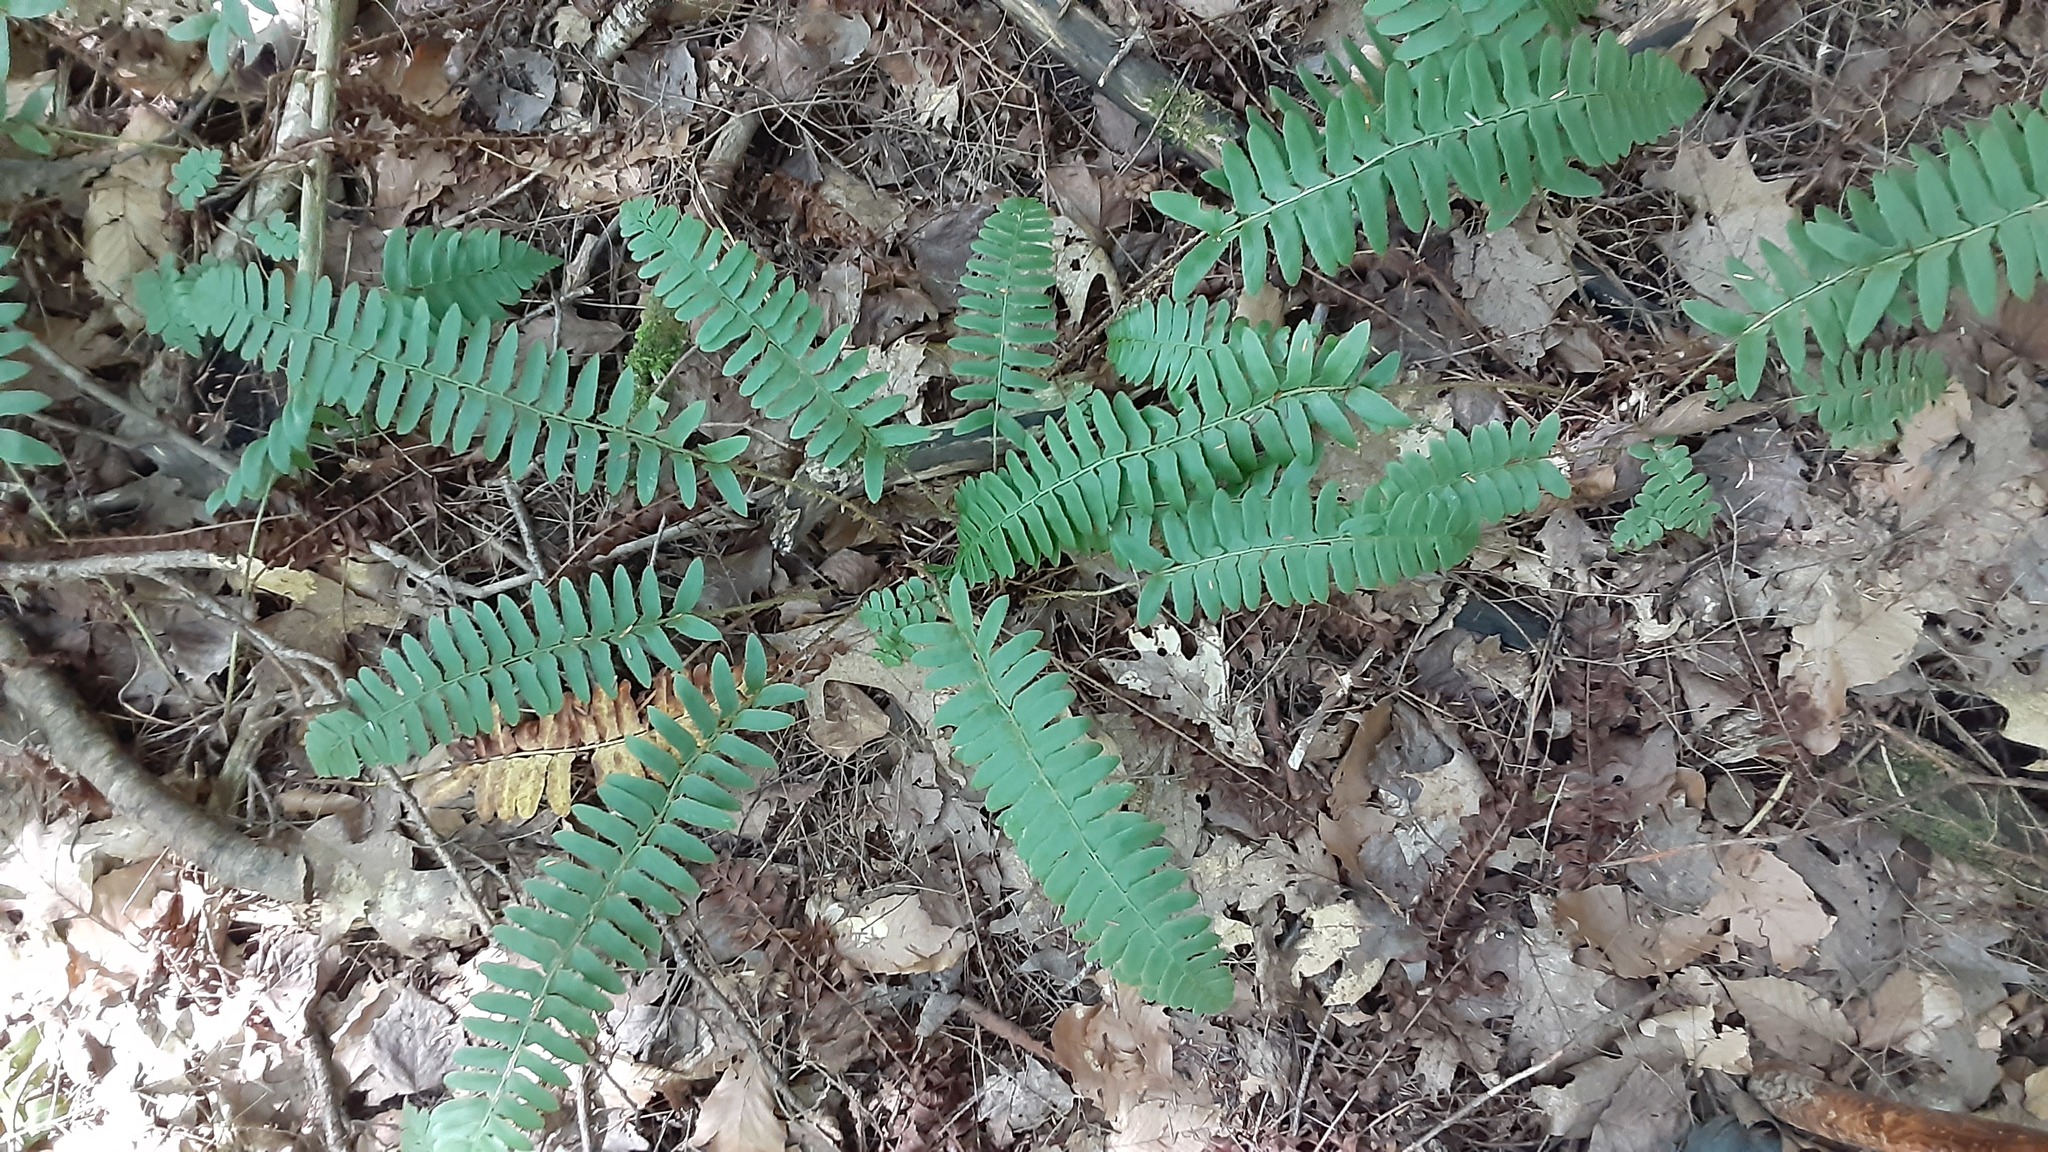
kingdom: Plantae
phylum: Tracheophyta
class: Polypodiopsida
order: Polypodiales
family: Dryopteridaceae
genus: Polystichum
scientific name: Polystichum acrostichoides
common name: Christmas fern
